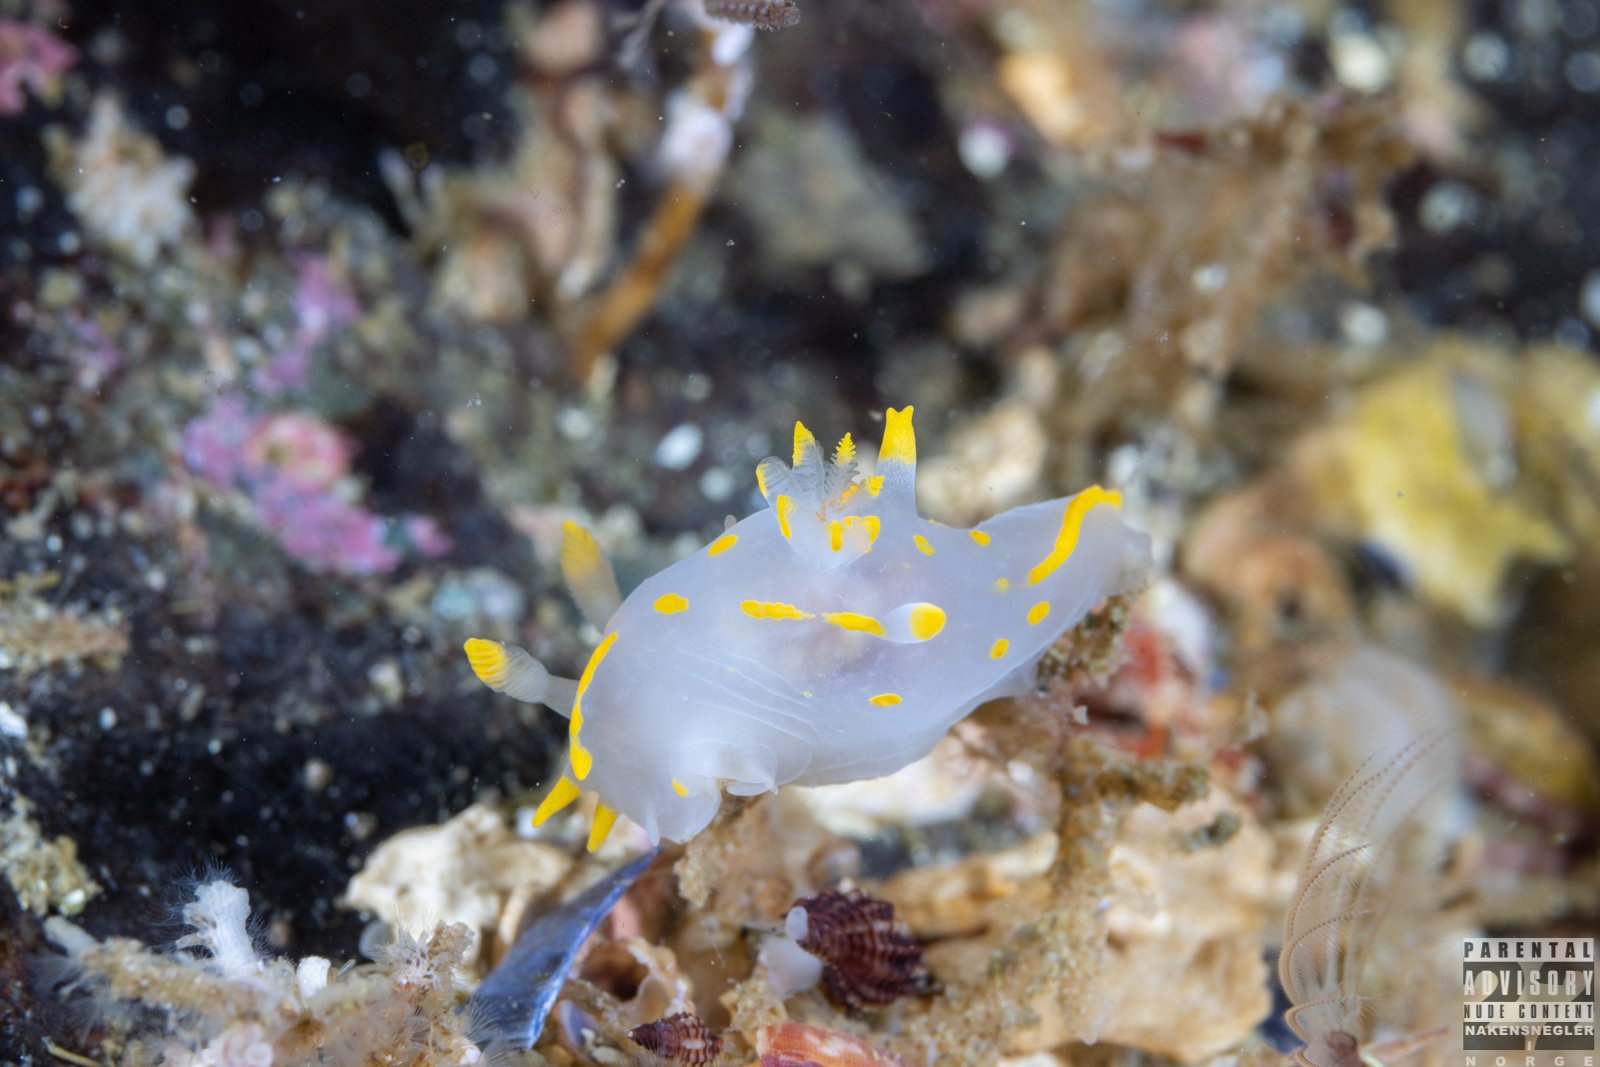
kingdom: Animalia
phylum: Mollusca
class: Gastropoda
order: Nudibranchia
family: Polyceridae
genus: Polycera
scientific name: Polycera quadrilineata
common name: Four-striped polycera
